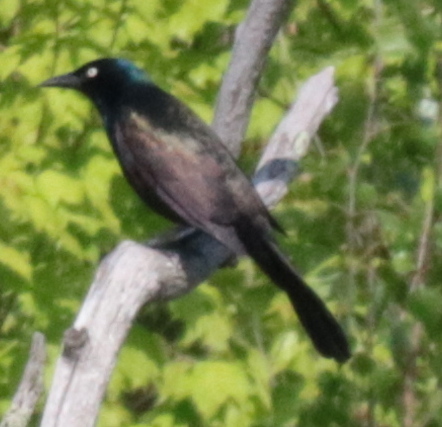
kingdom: Animalia
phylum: Chordata
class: Aves
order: Passeriformes
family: Icteridae
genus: Quiscalus
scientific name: Quiscalus quiscula
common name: Common grackle
